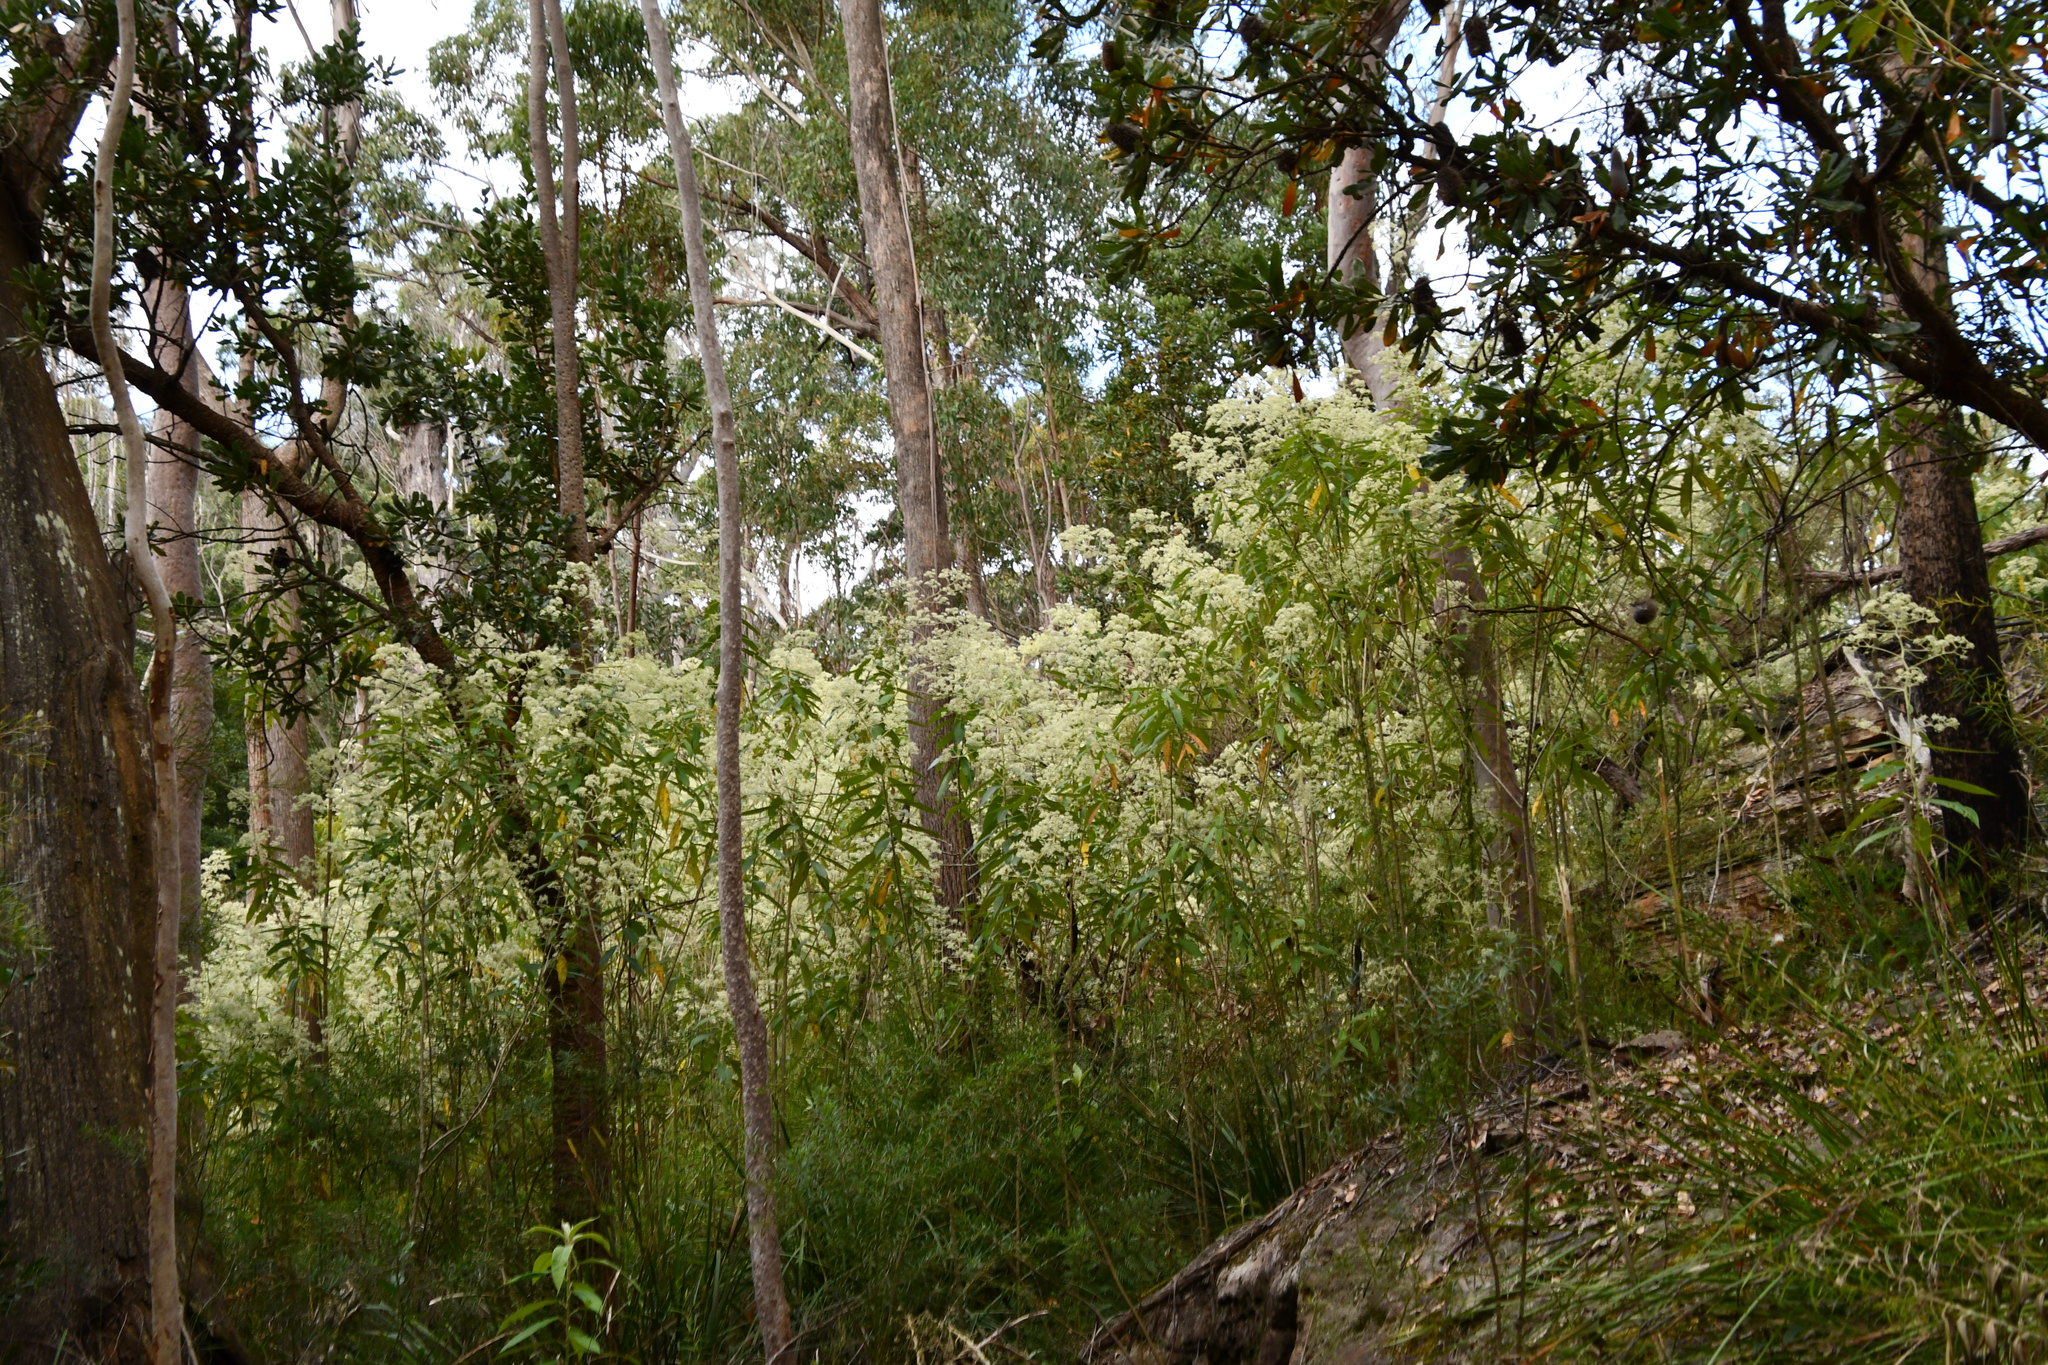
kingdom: Plantae
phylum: Tracheophyta
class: Magnoliopsida
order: Apiales
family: Araliaceae
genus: Astrotricha
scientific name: Astrotricha floccosa
